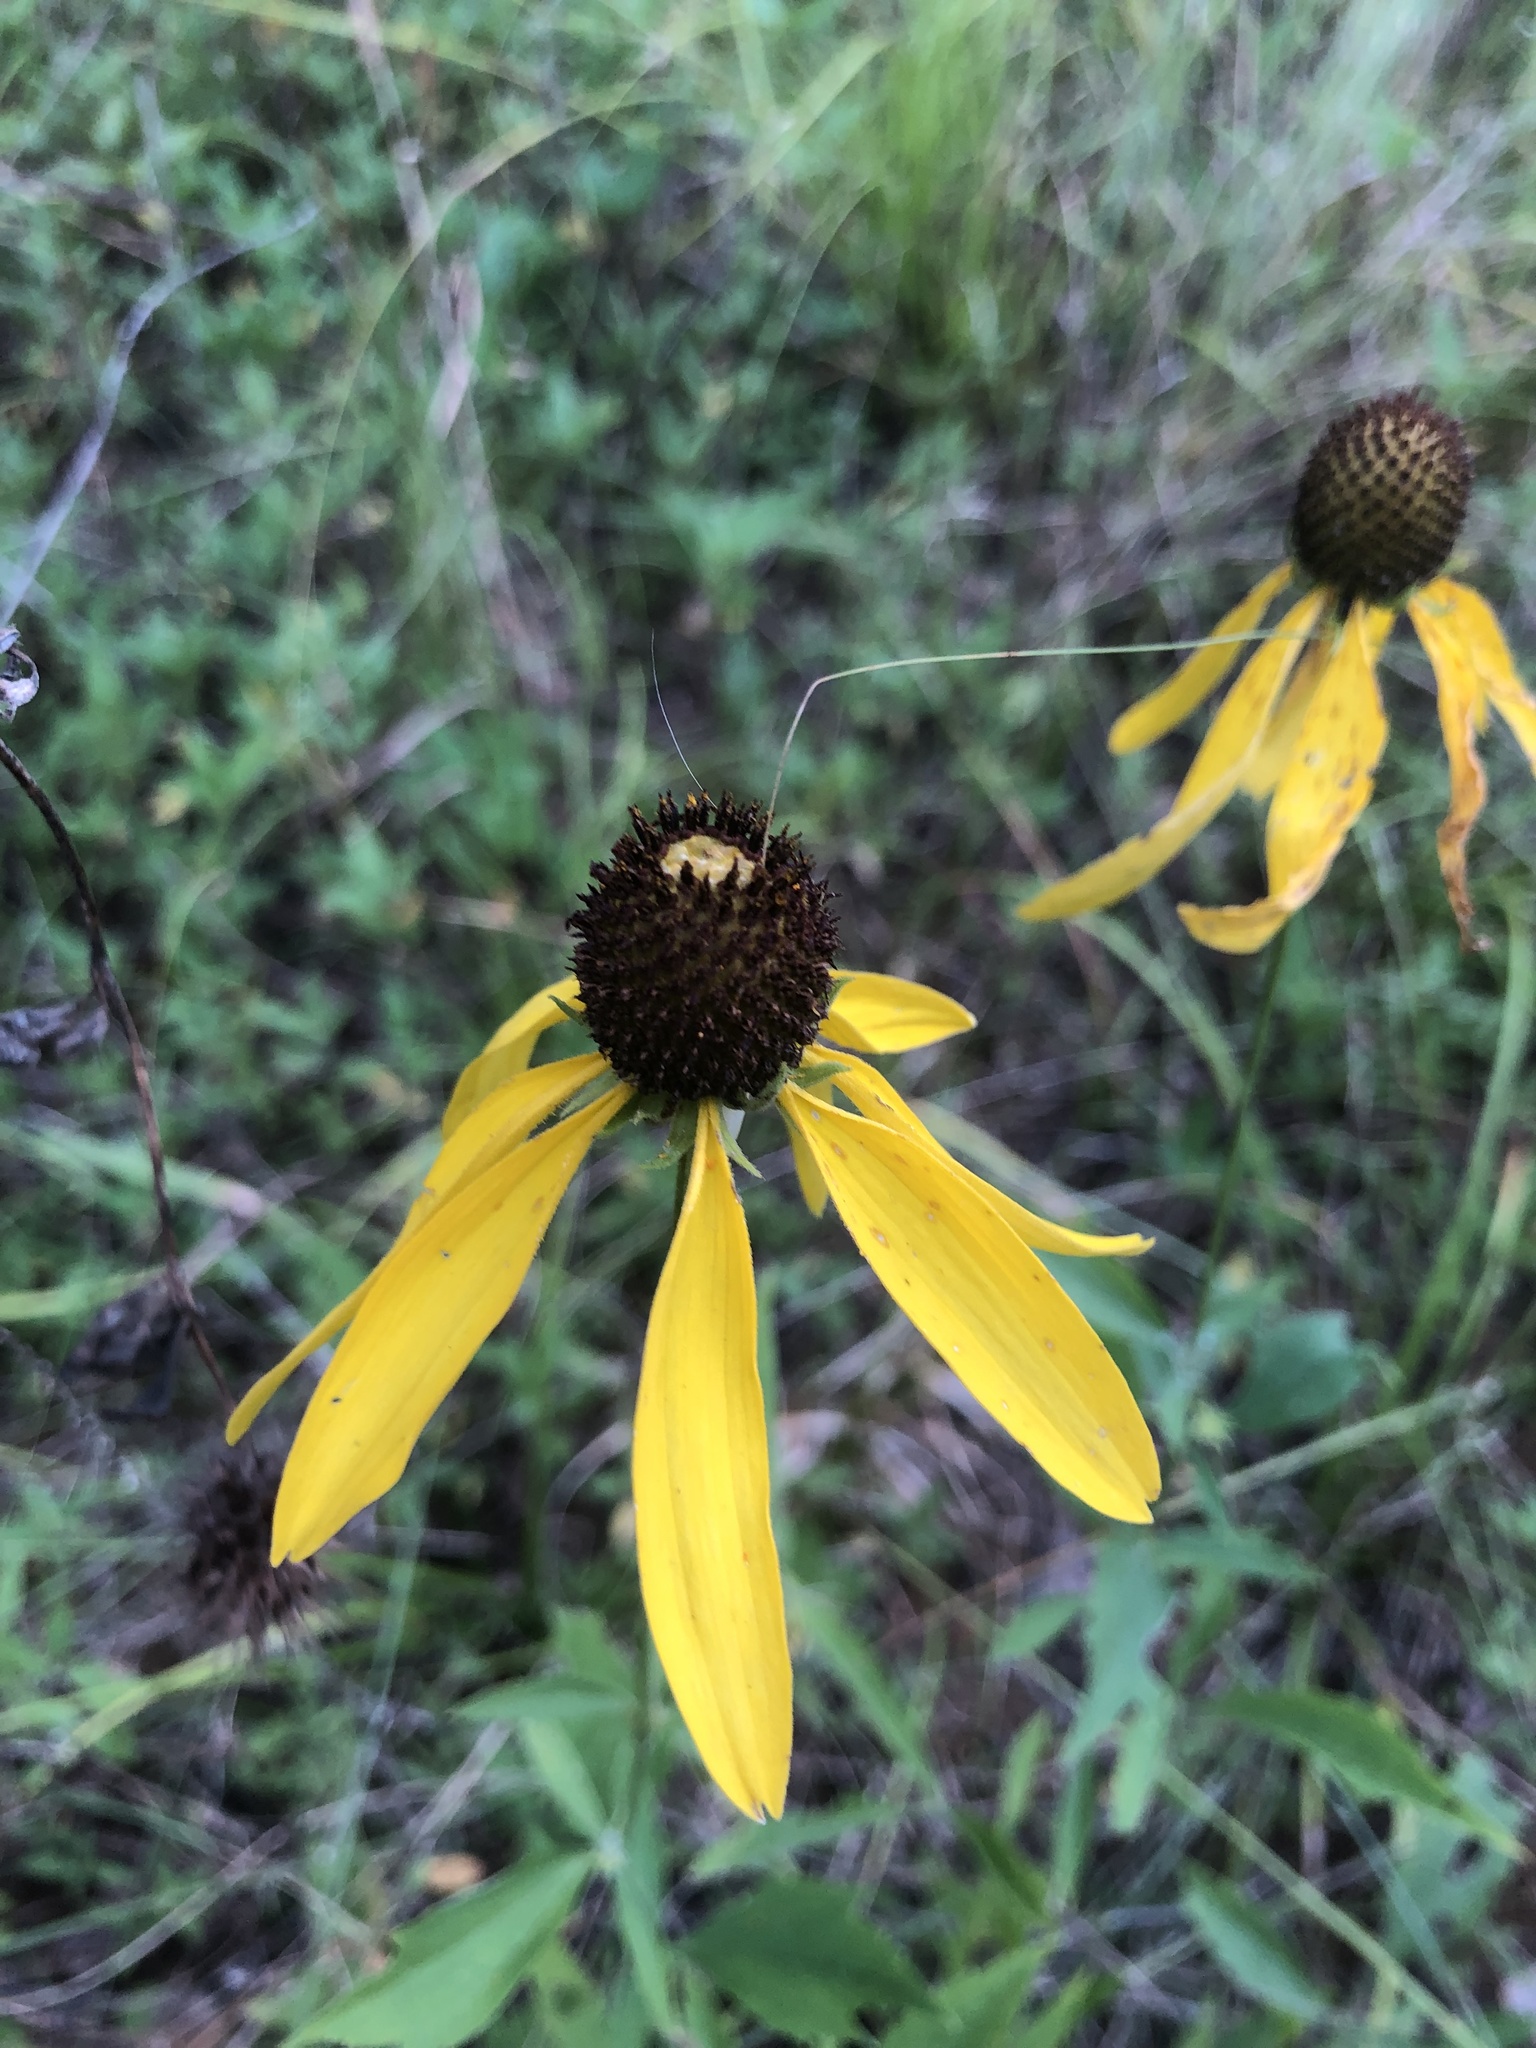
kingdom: Plantae
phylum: Tracheophyta
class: Magnoliopsida
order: Asterales
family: Asteraceae
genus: Ratibida
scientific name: Ratibida pinnata
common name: Drooping prairie-coneflower
